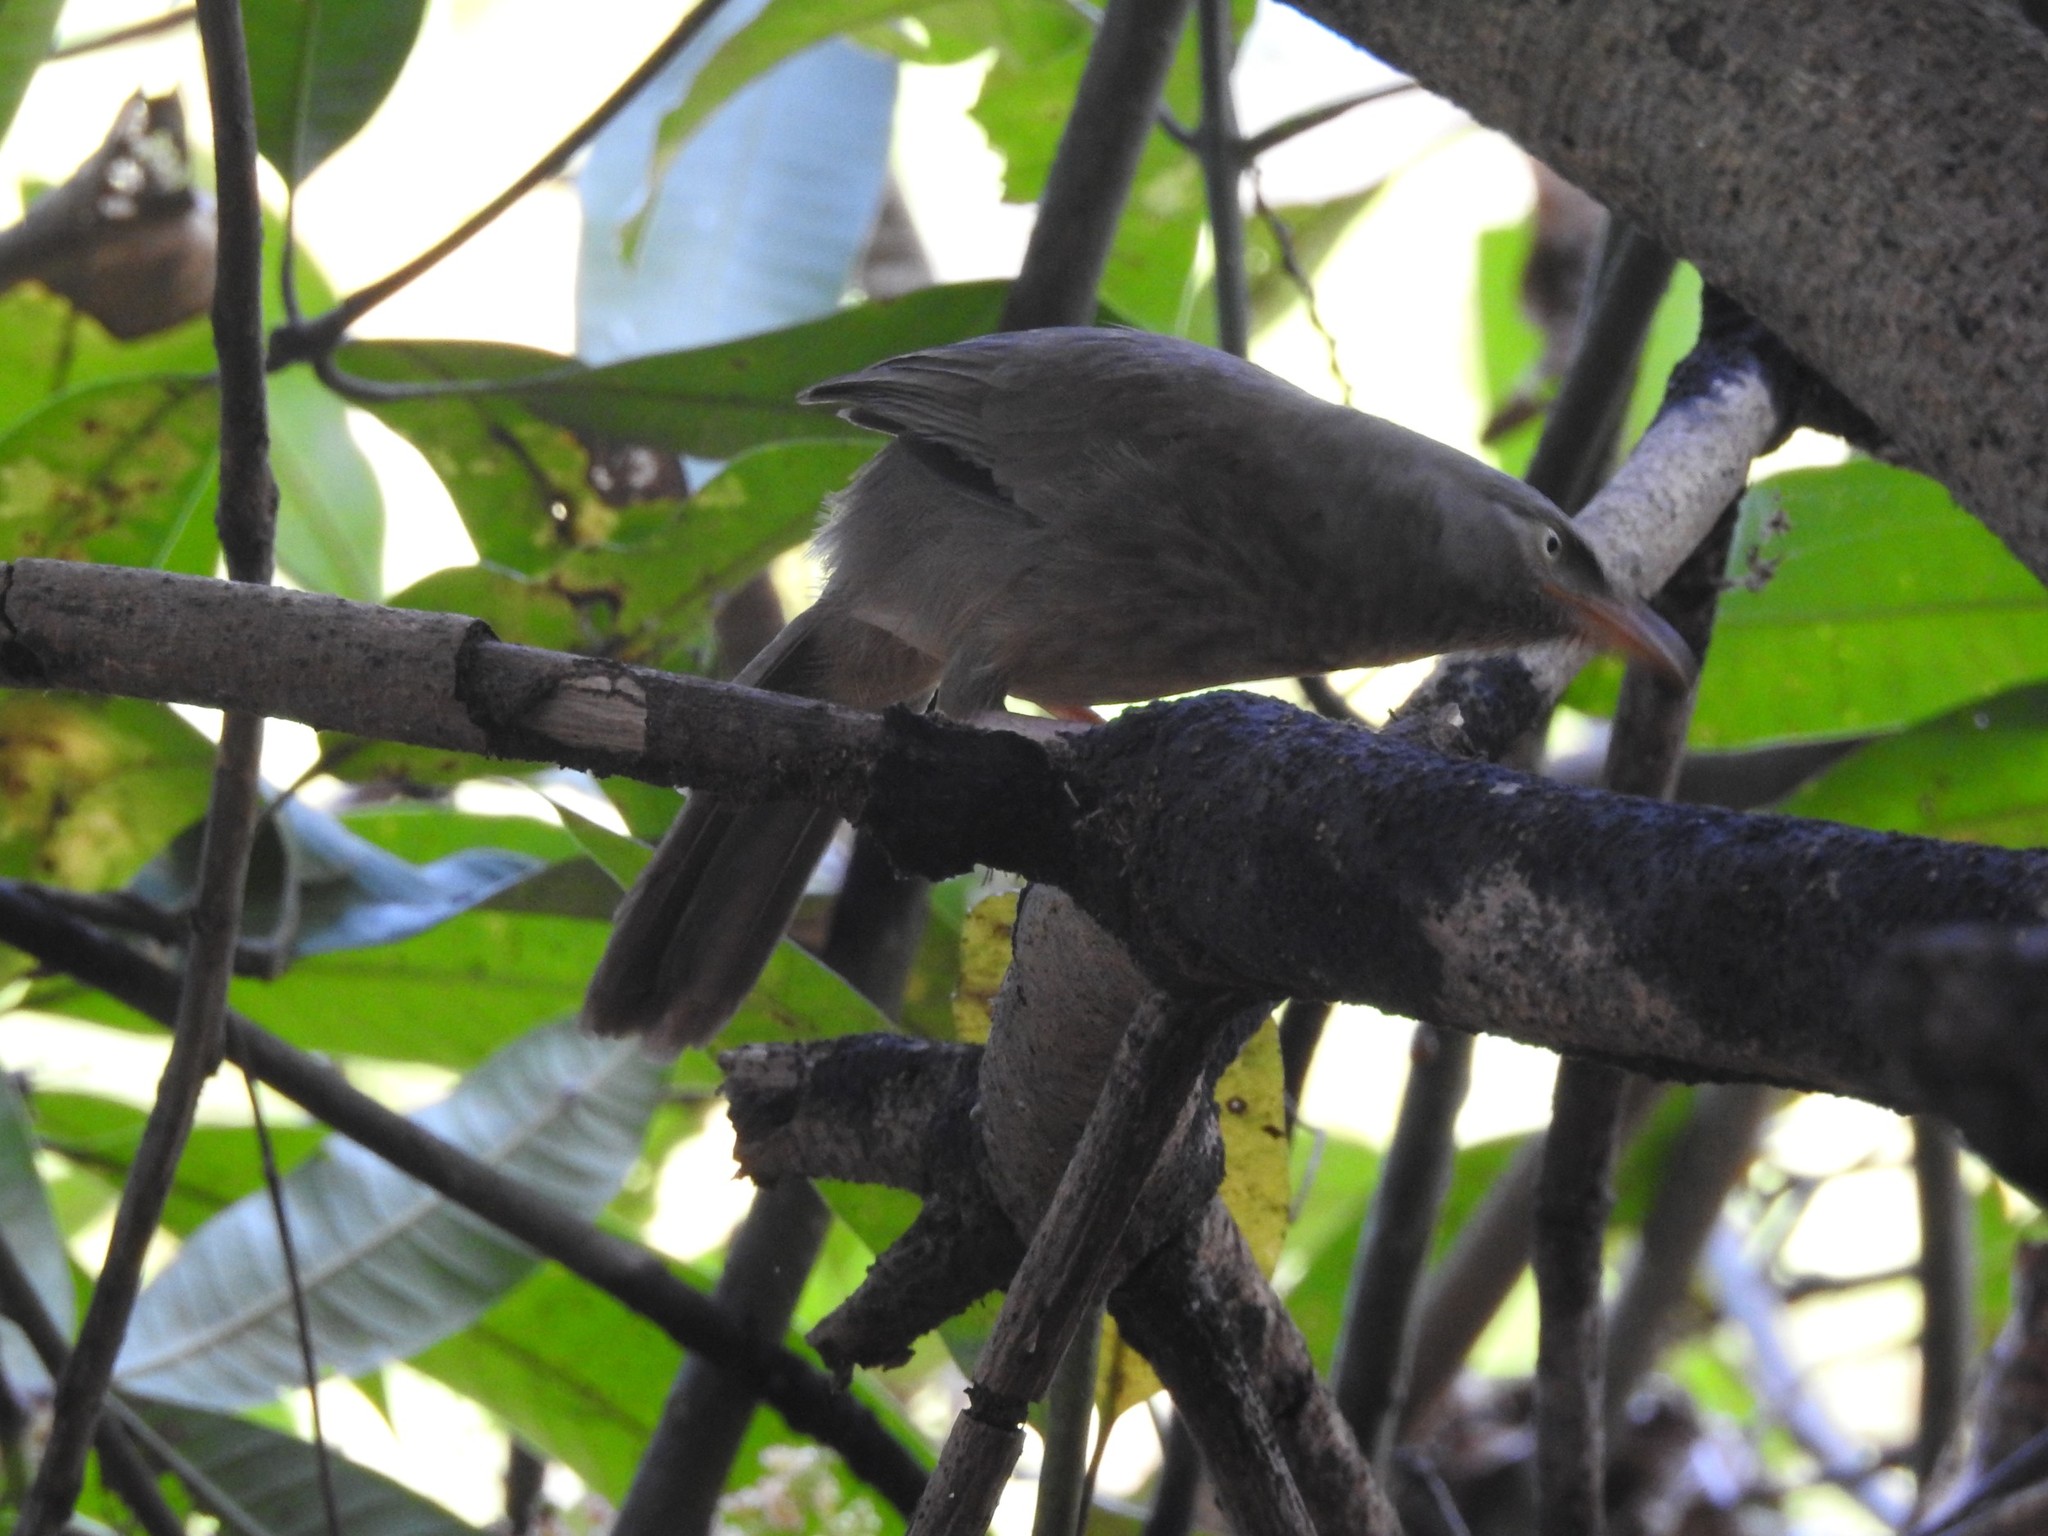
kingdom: Animalia
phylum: Chordata
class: Aves
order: Passeriformes
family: Leiothrichidae
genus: Turdoides
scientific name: Turdoides striata
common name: Jungle babbler
